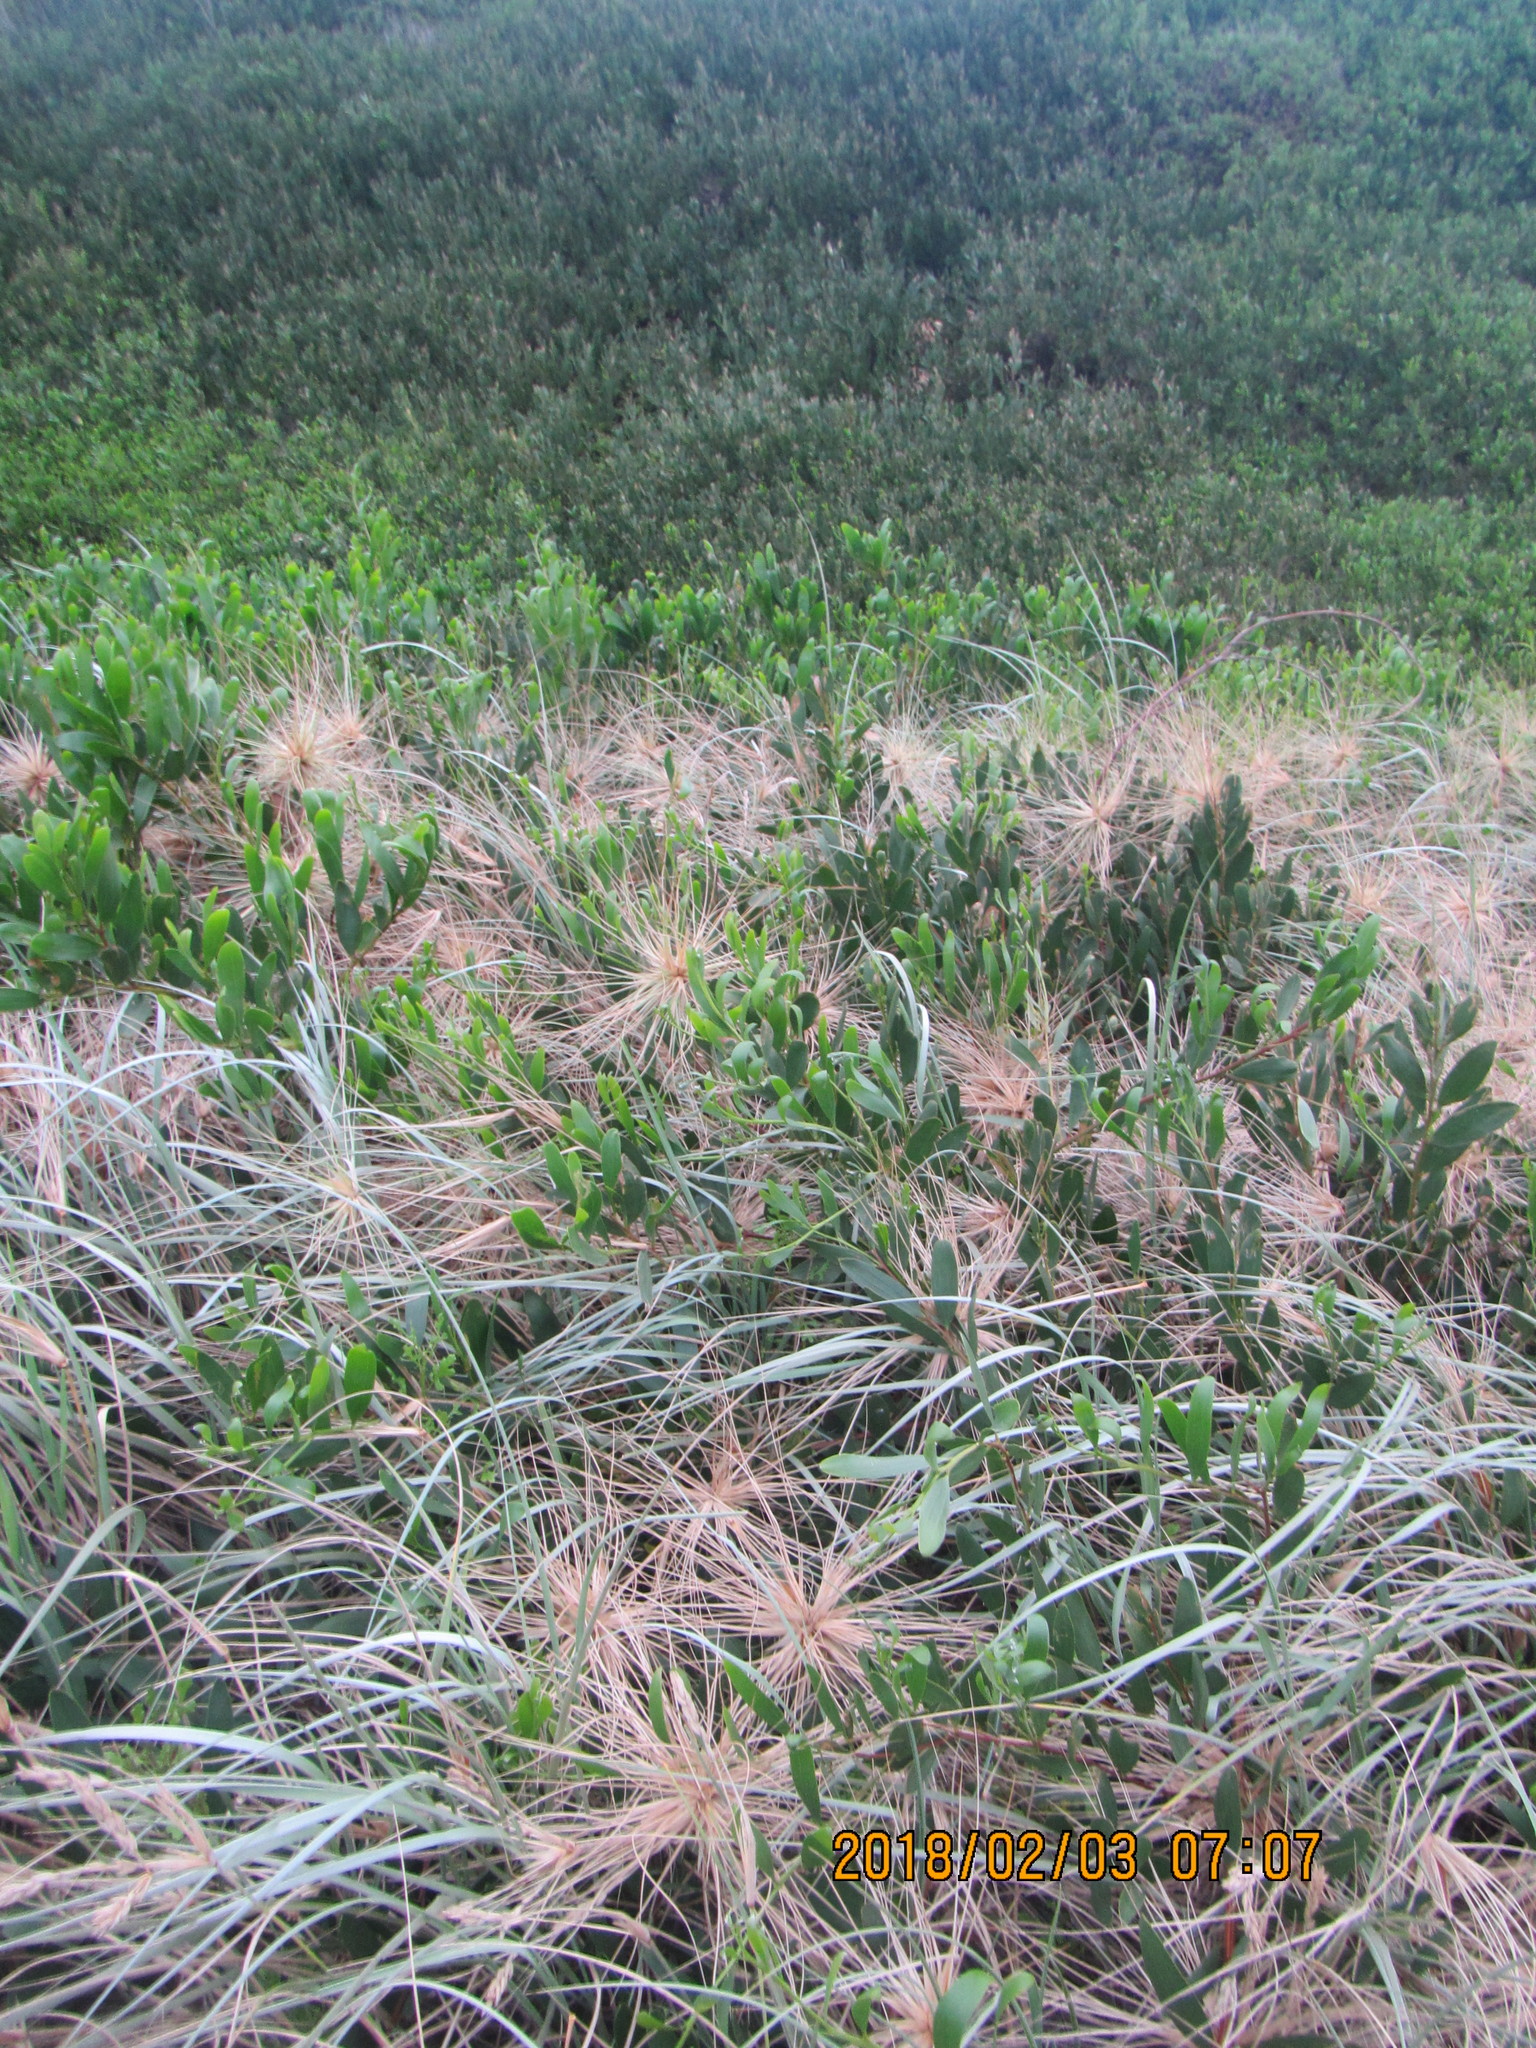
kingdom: Plantae
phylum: Tracheophyta
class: Magnoliopsida
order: Fabales
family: Fabaceae
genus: Acacia
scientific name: Acacia longifolia
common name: Sydney golden wattle
